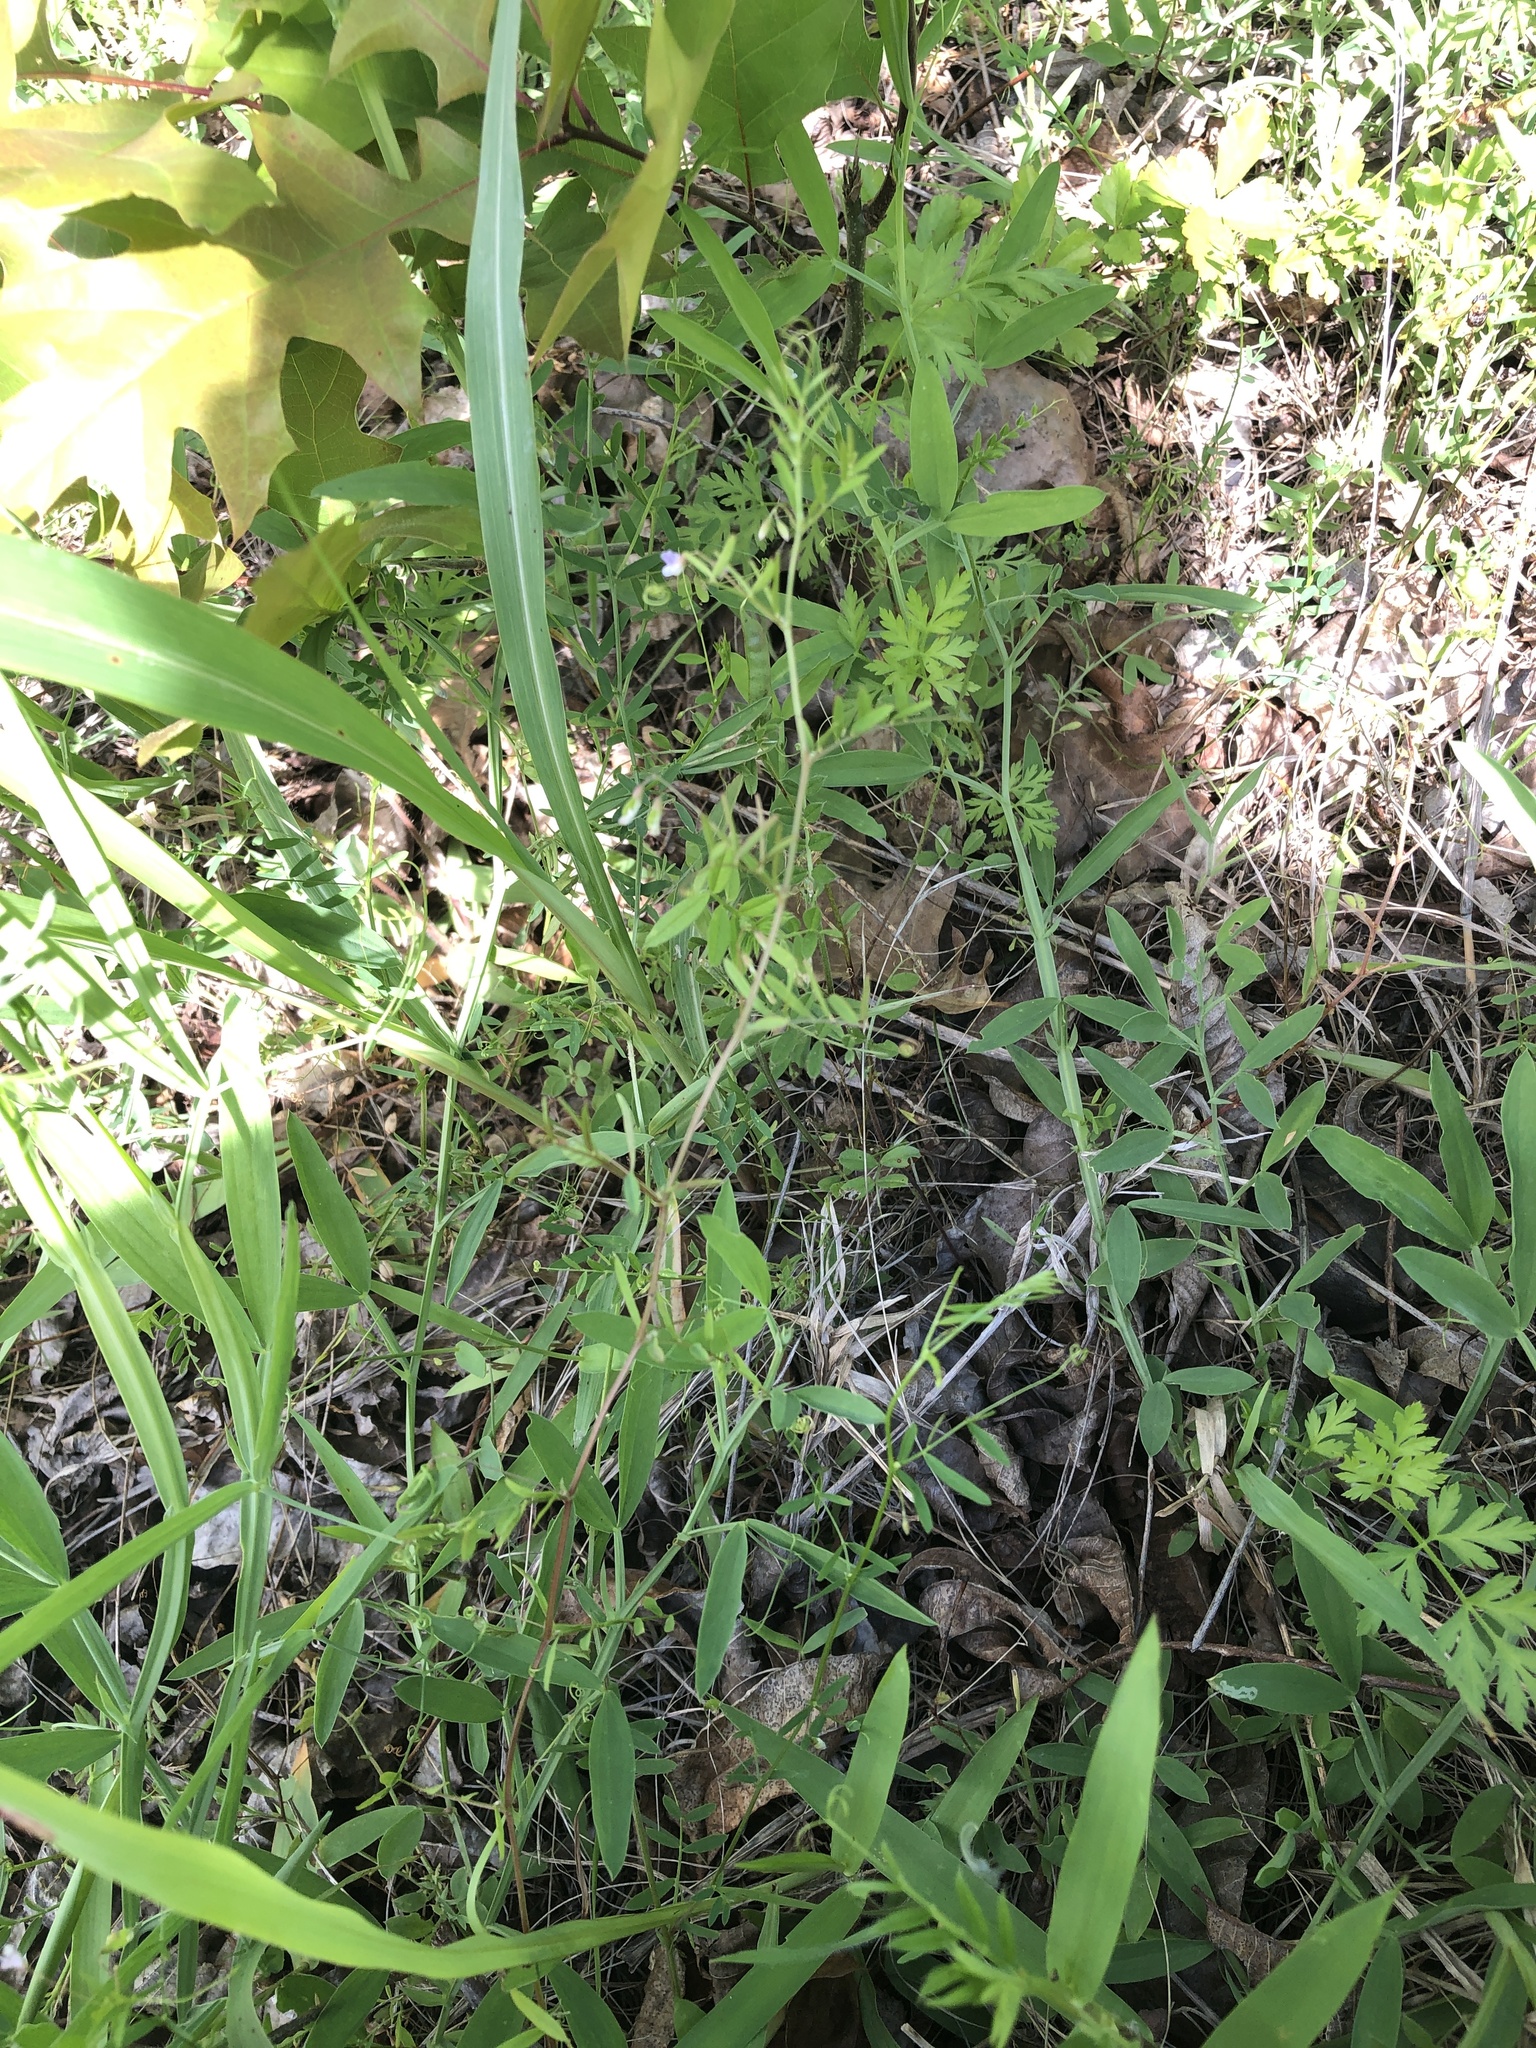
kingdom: Plantae
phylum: Tracheophyta
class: Magnoliopsida
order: Fabales
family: Fabaceae
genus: Vicia
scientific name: Vicia tetrasperma
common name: Smooth tare
